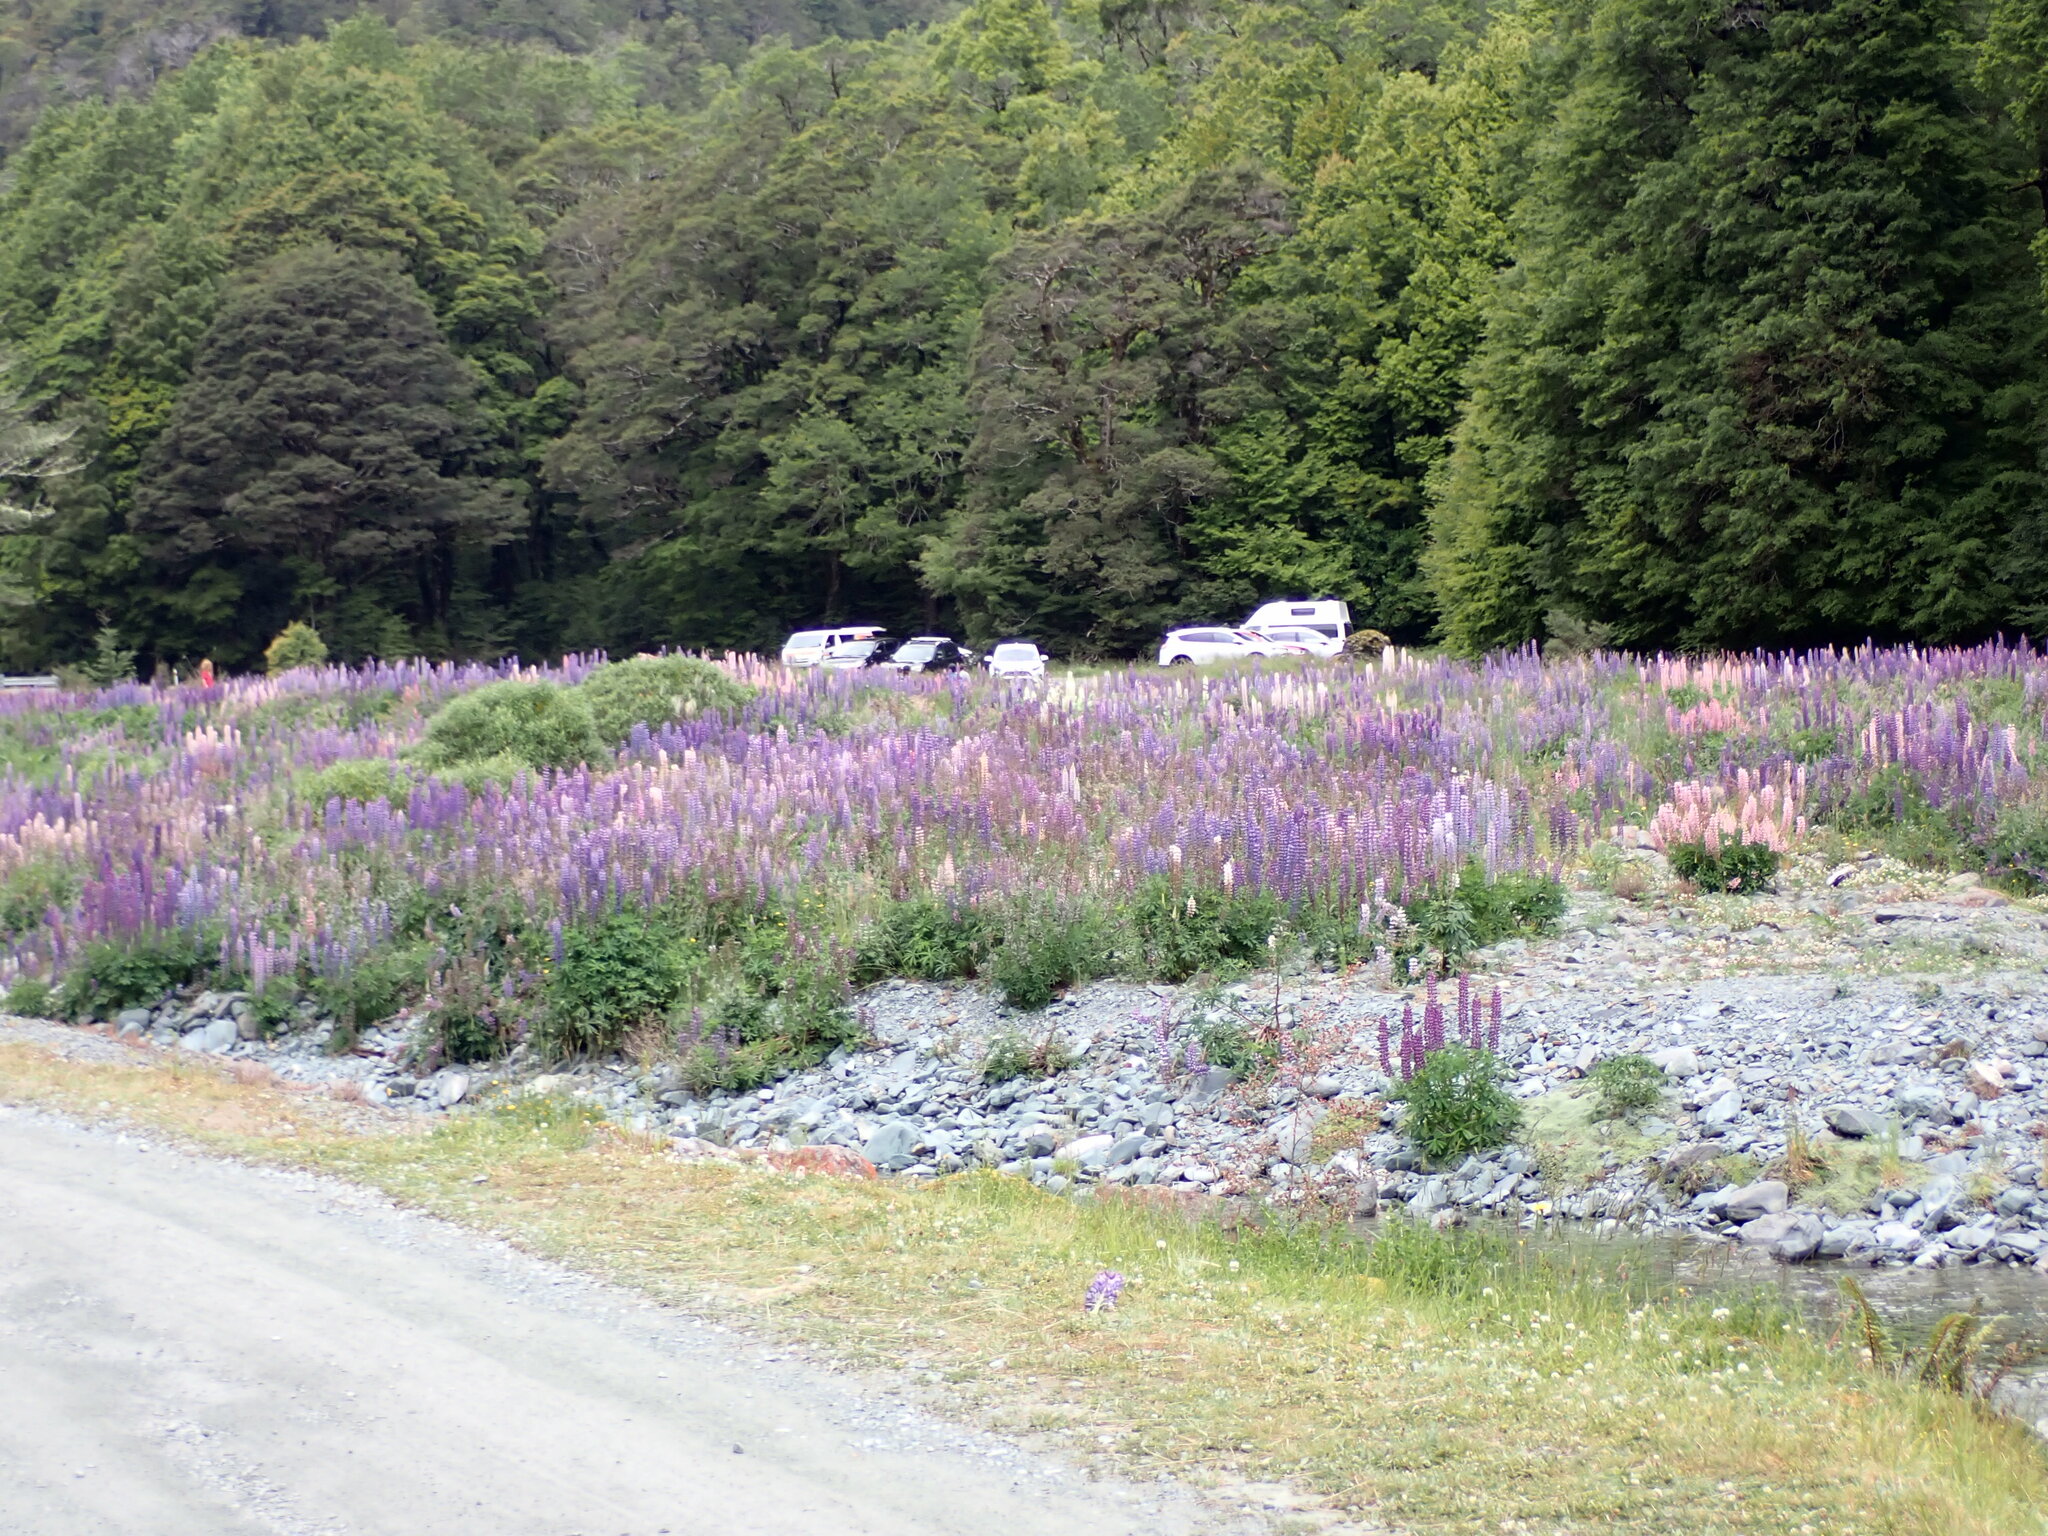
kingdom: Plantae
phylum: Tracheophyta
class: Magnoliopsida
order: Fabales
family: Fabaceae
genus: Lupinus
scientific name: Lupinus polyphyllus
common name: Garden lupin
